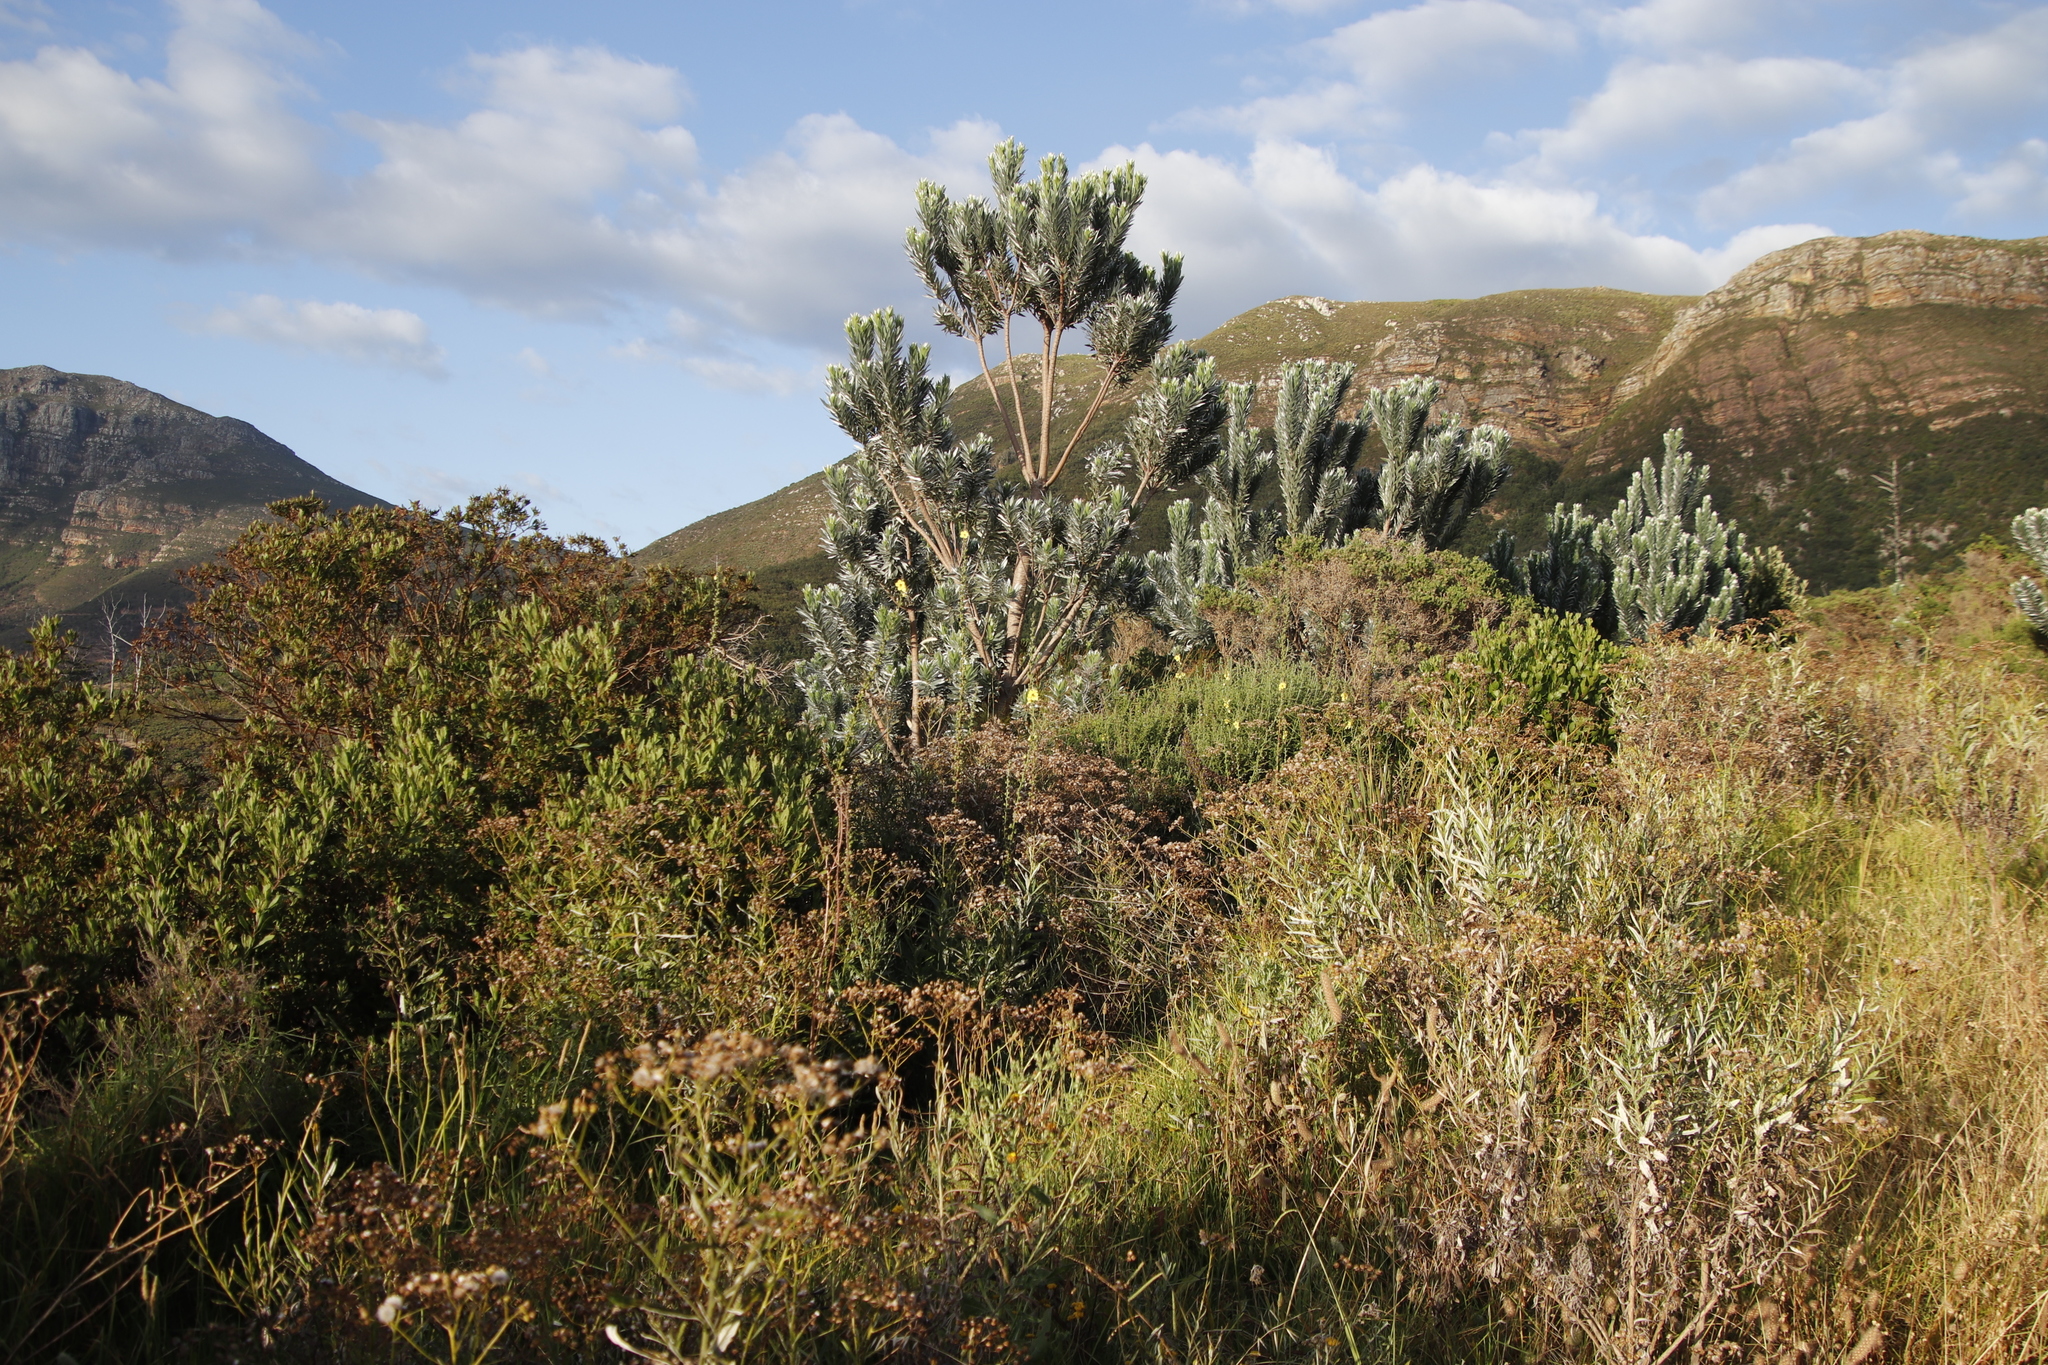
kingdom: Plantae
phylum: Tracheophyta
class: Magnoliopsida
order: Proteales
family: Proteaceae
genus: Leucadendron
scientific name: Leucadendron argenteum
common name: Cape silver tree
